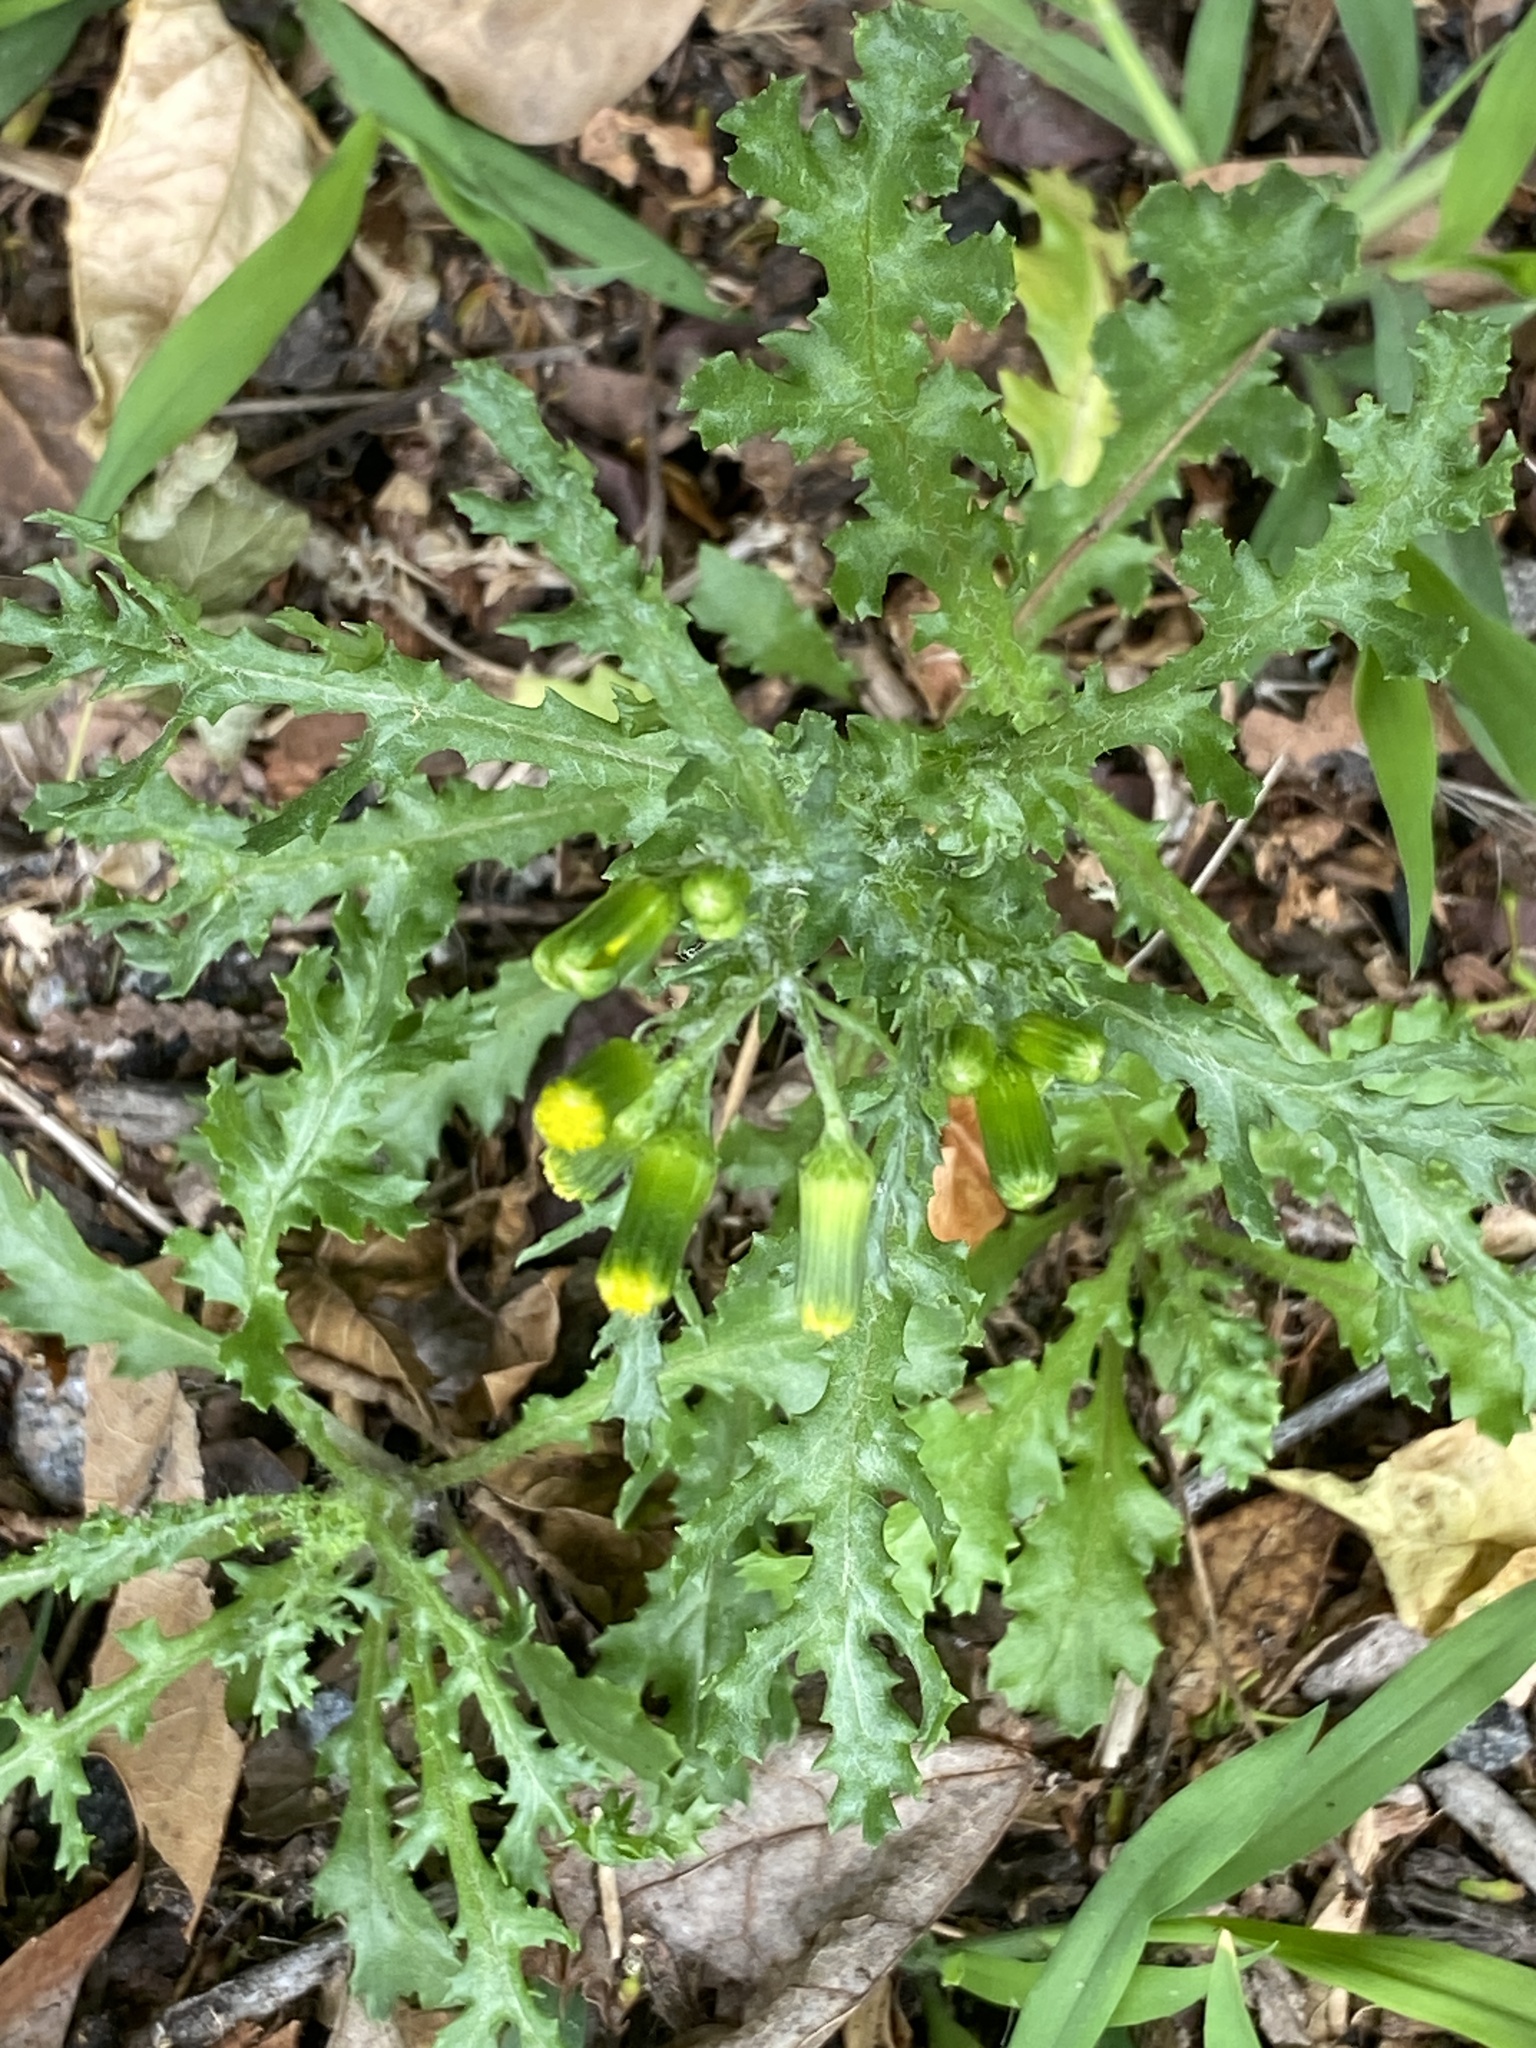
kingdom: Plantae
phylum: Tracheophyta
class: Magnoliopsida
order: Asterales
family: Asteraceae
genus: Senecio
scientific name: Senecio vulgaris
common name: Old-man-in-the-spring
